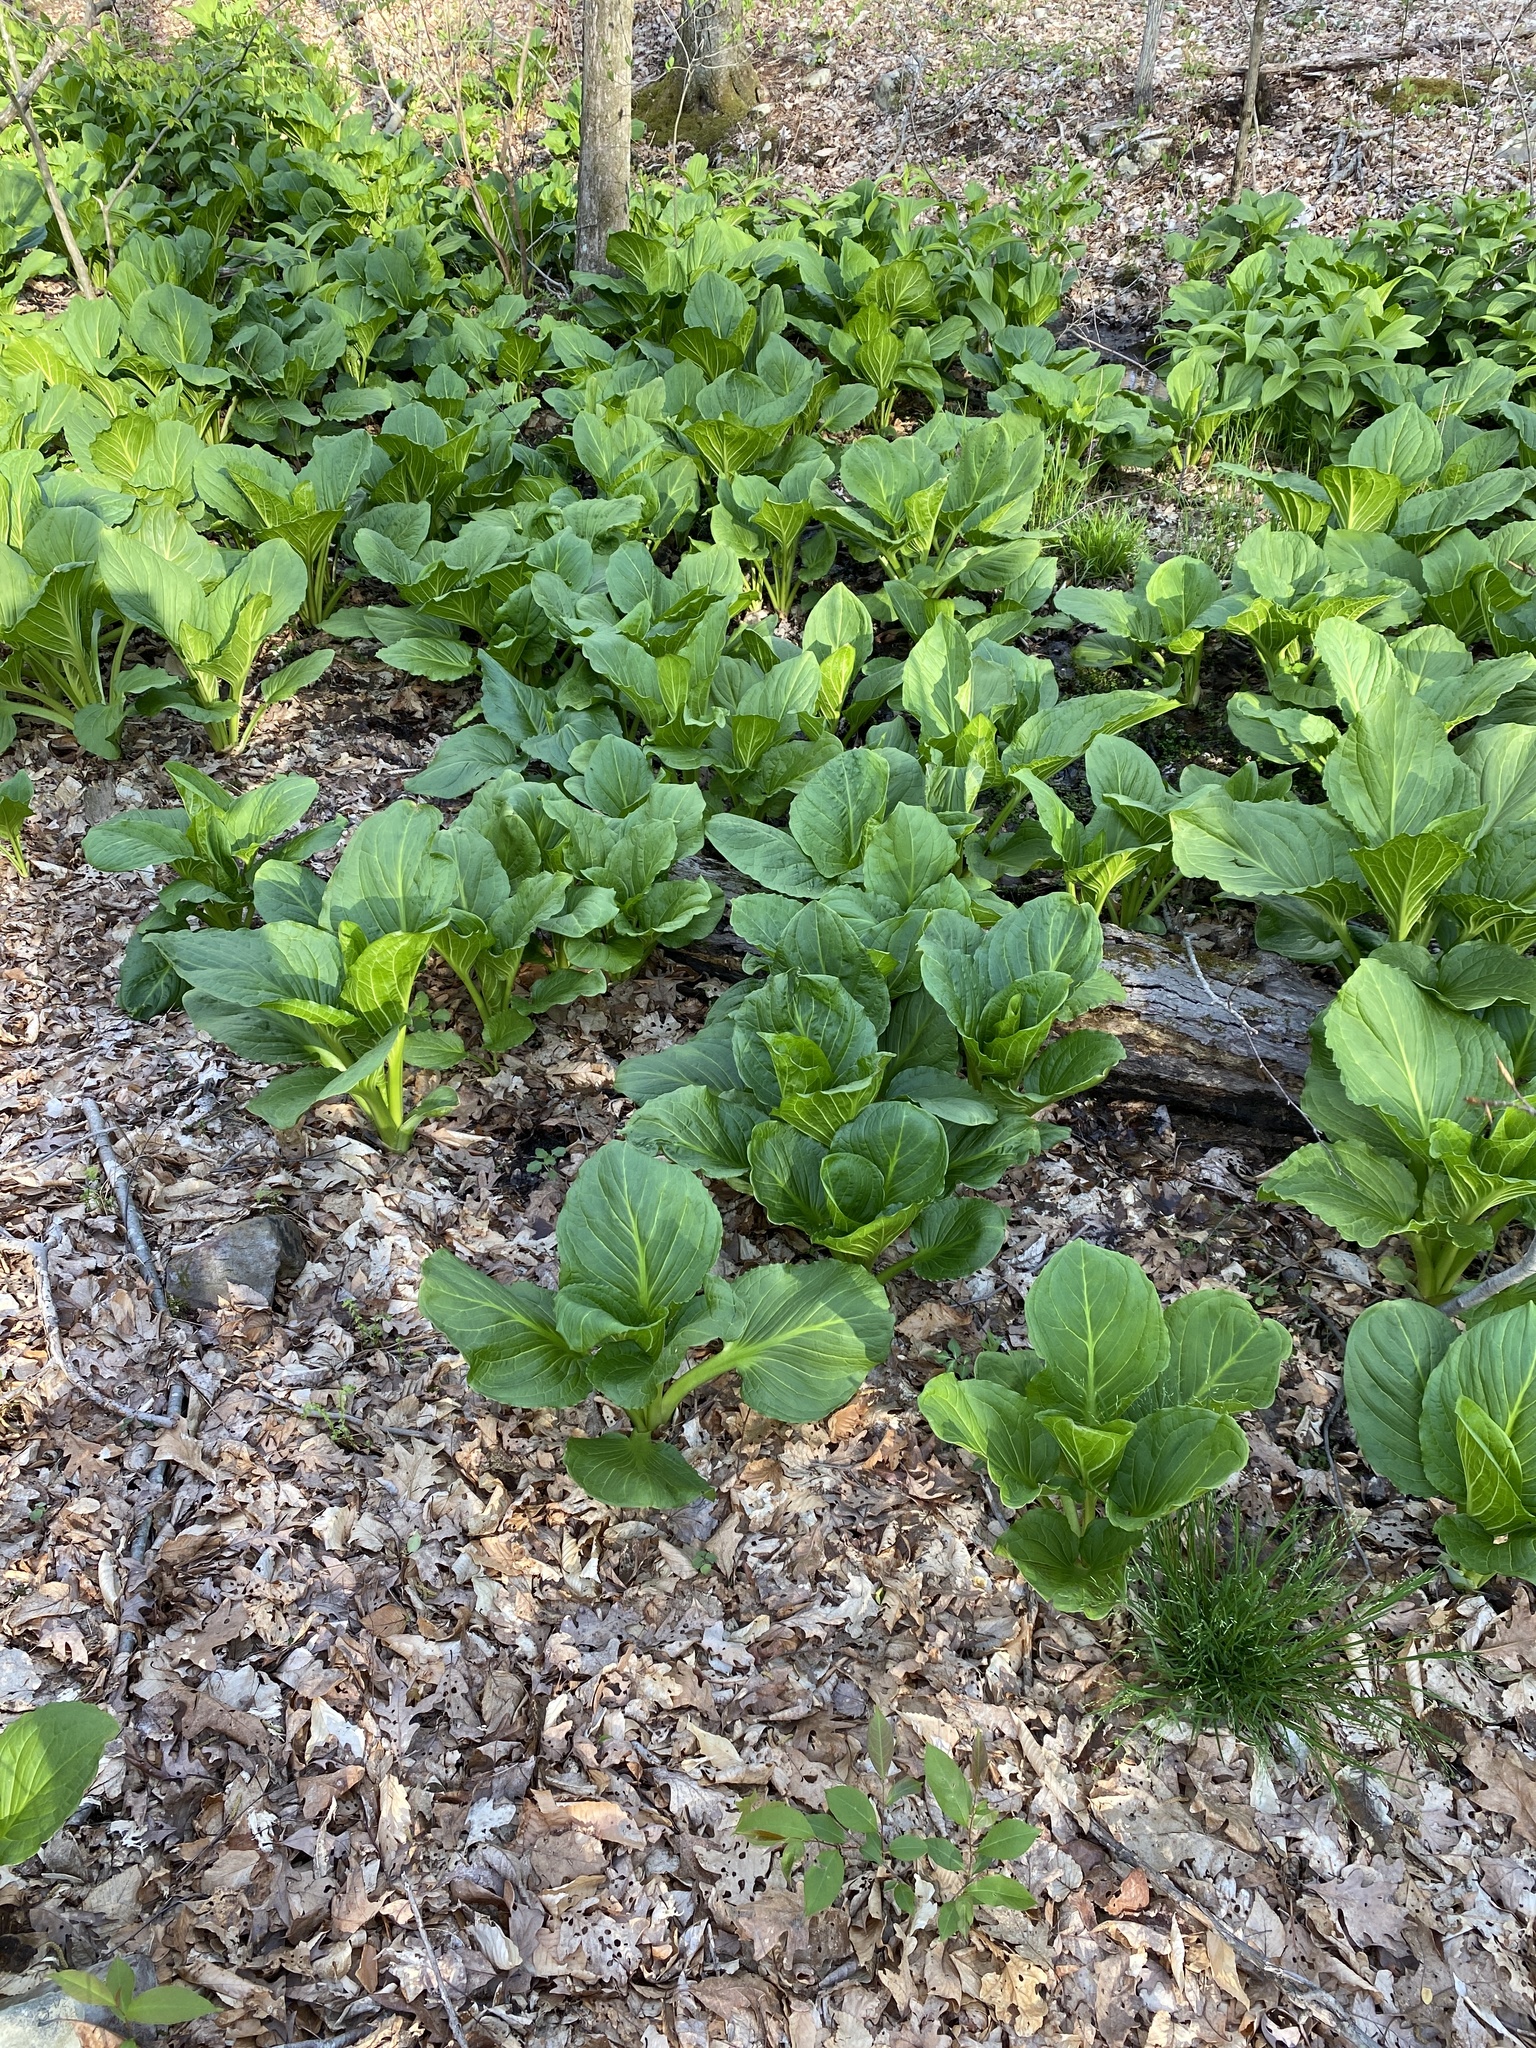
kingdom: Plantae
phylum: Tracheophyta
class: Liliopsida
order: Alismatales
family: Araceae
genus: Symplocarpus
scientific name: Symplocarpus foetidus
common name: Eastern skunk cabbage
